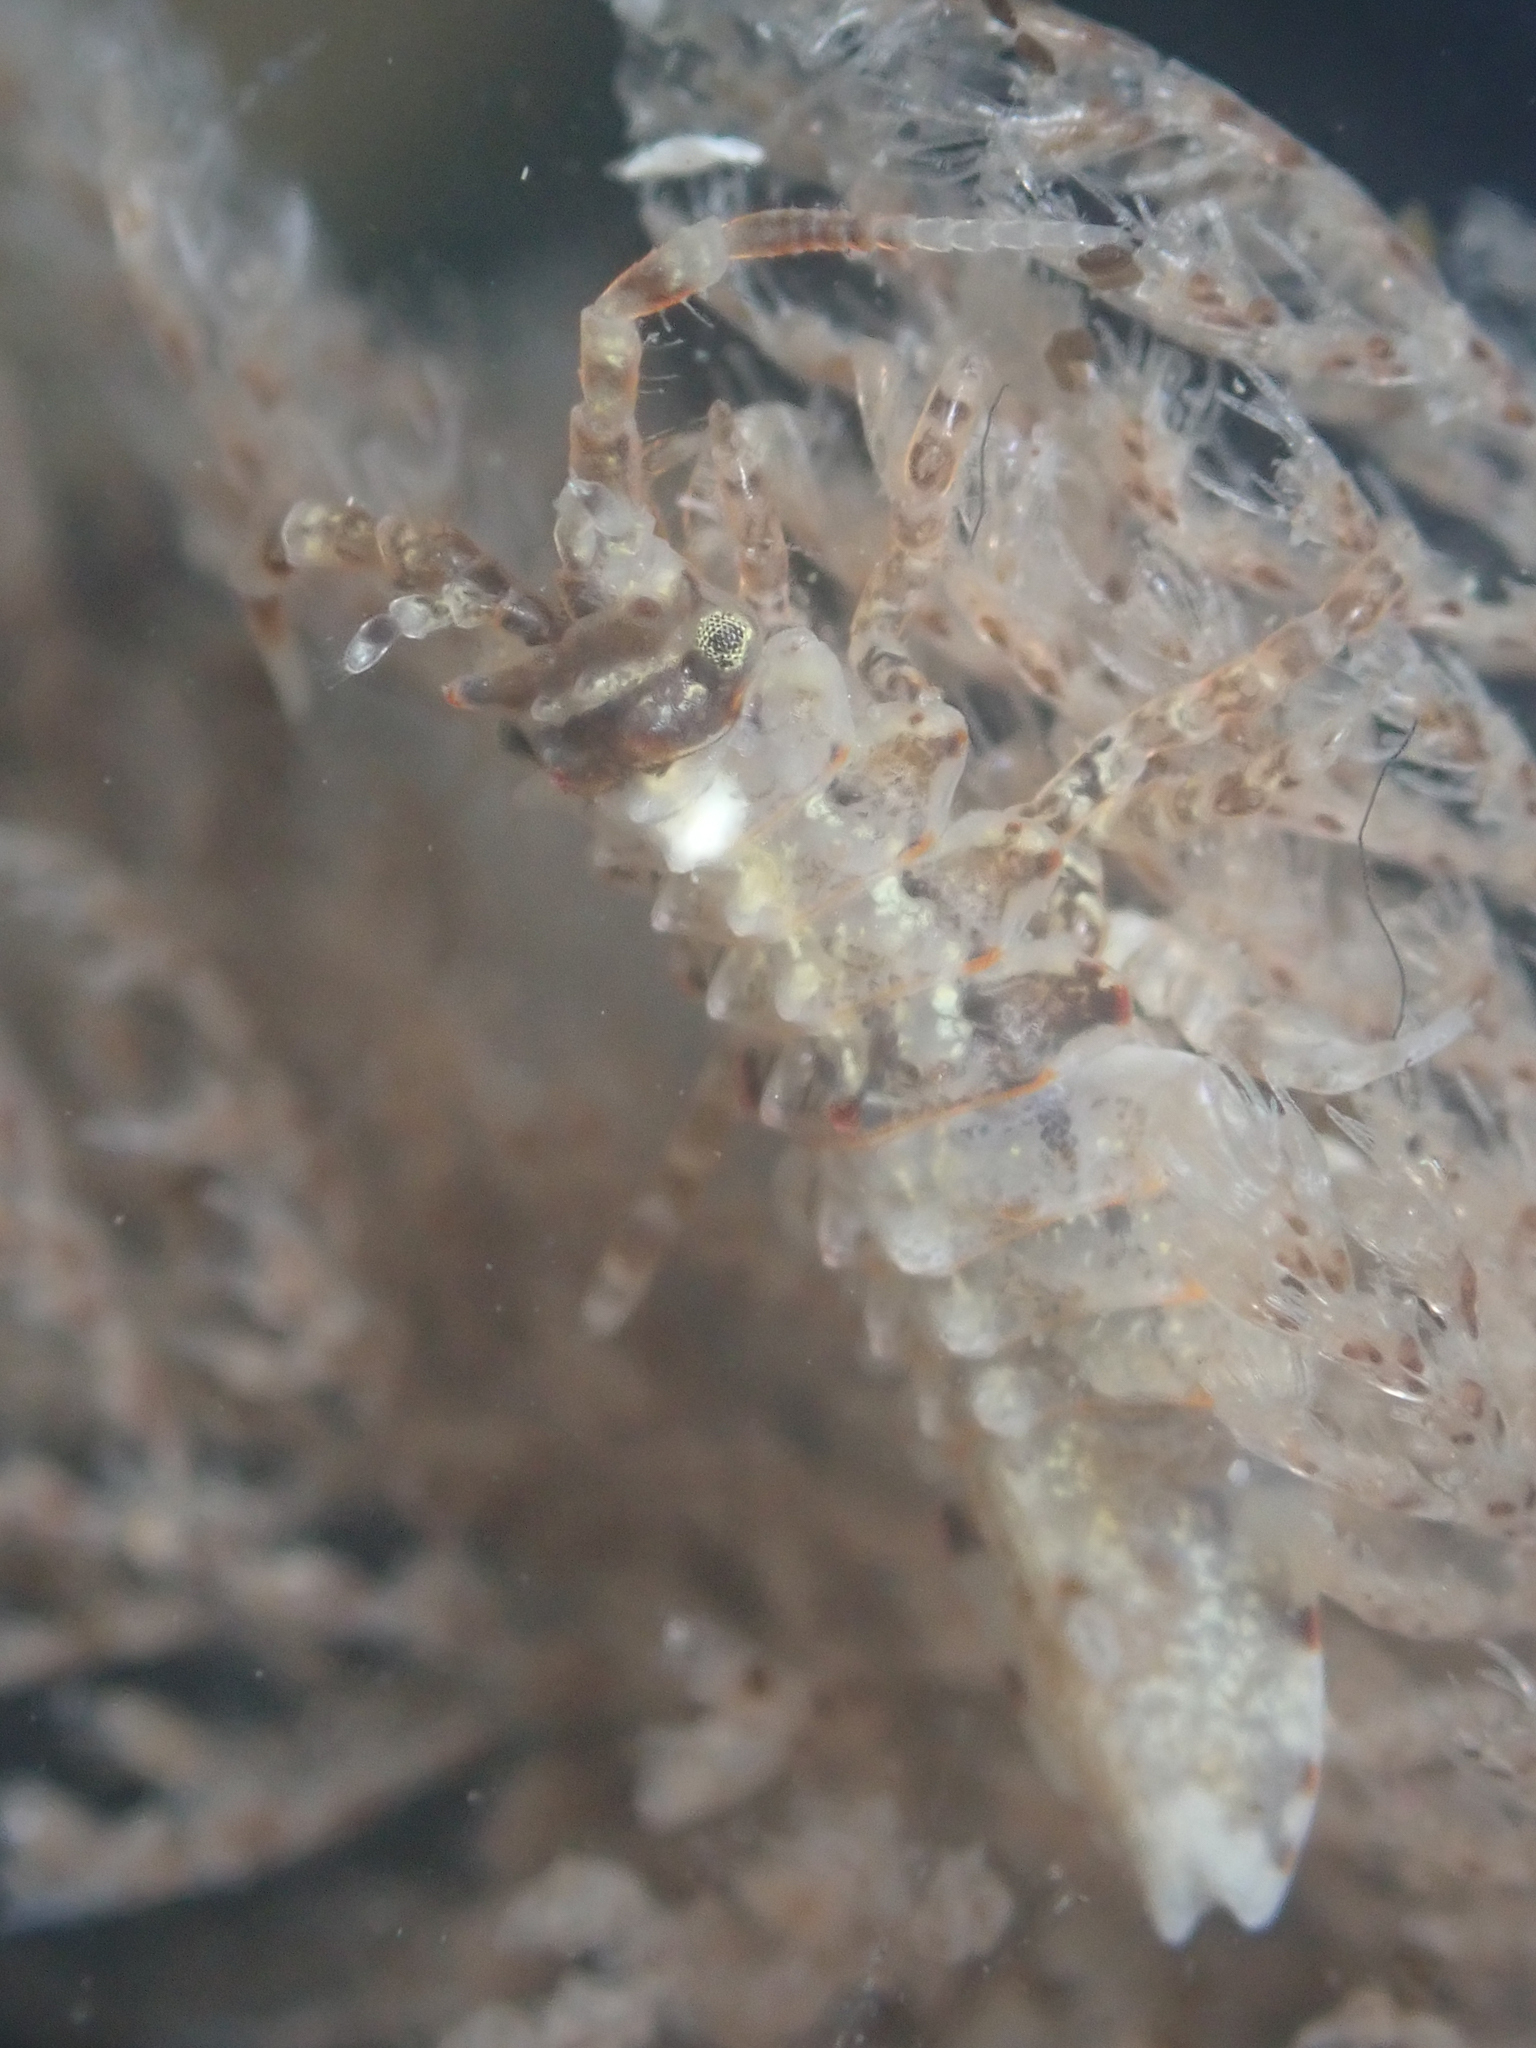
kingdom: Animalia
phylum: Arthropoda
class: Malacostraca
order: Isopoda
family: Idoteidae
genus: Synidotea
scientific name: Synidotea pettiboneae
